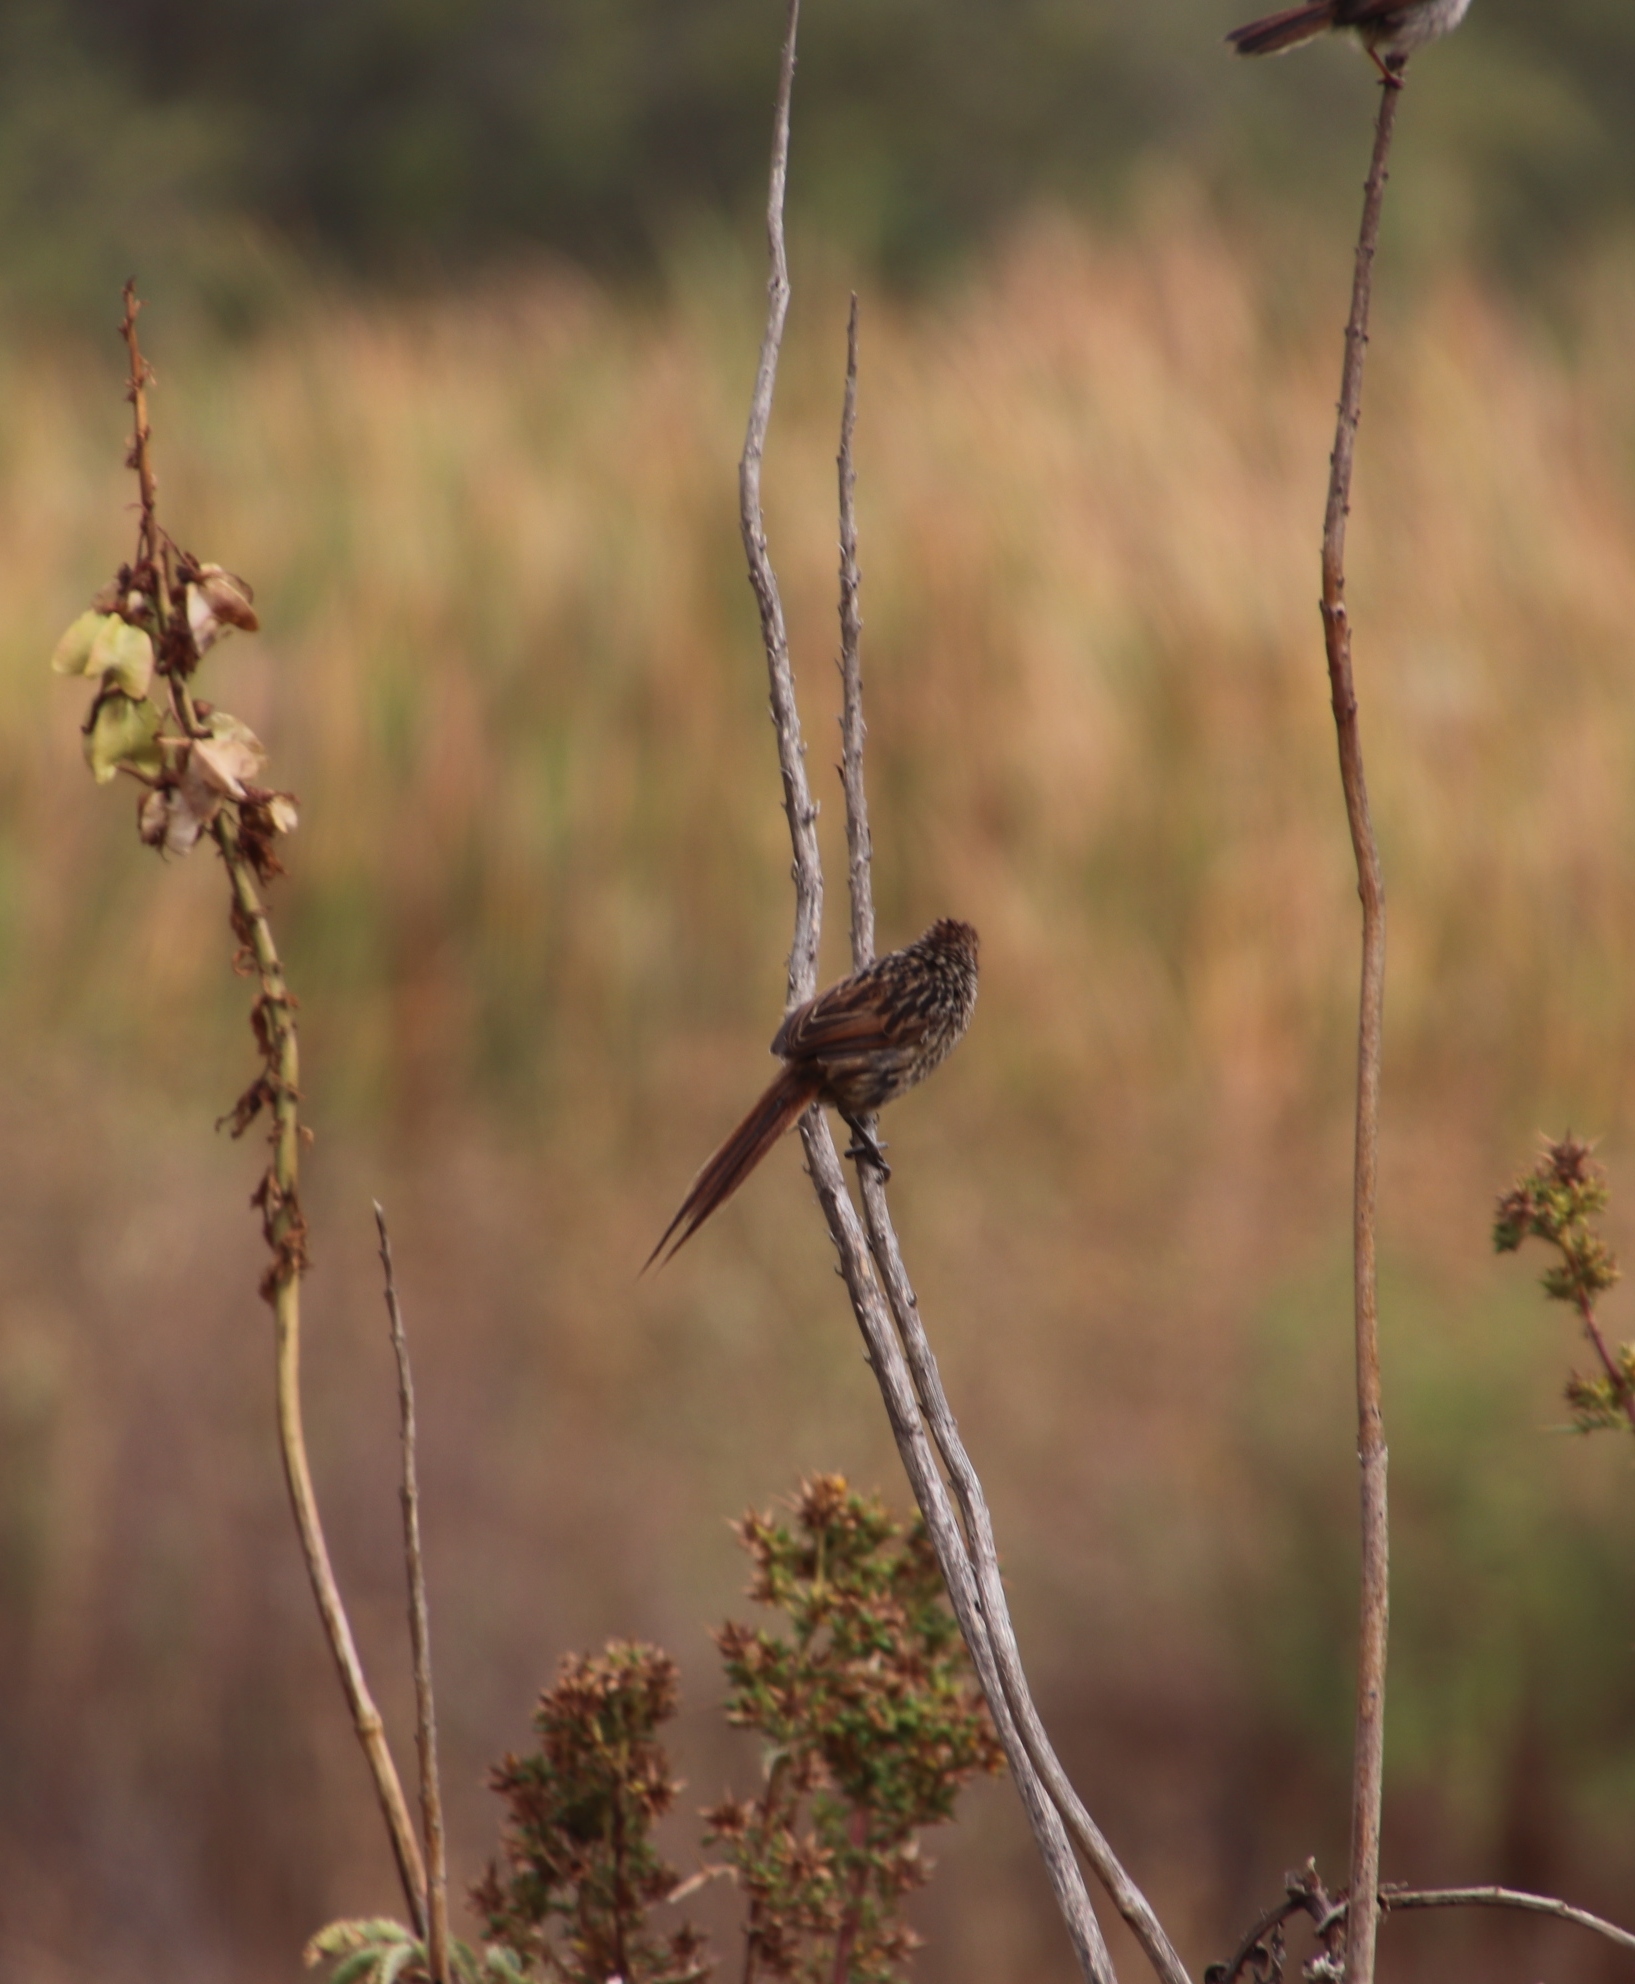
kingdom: Animalia
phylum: Chordata
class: Aves
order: Passeriformes
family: Macrosphenidae
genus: Sphenoeacus
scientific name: Sphenoeacus afer
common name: Cape grassbird
